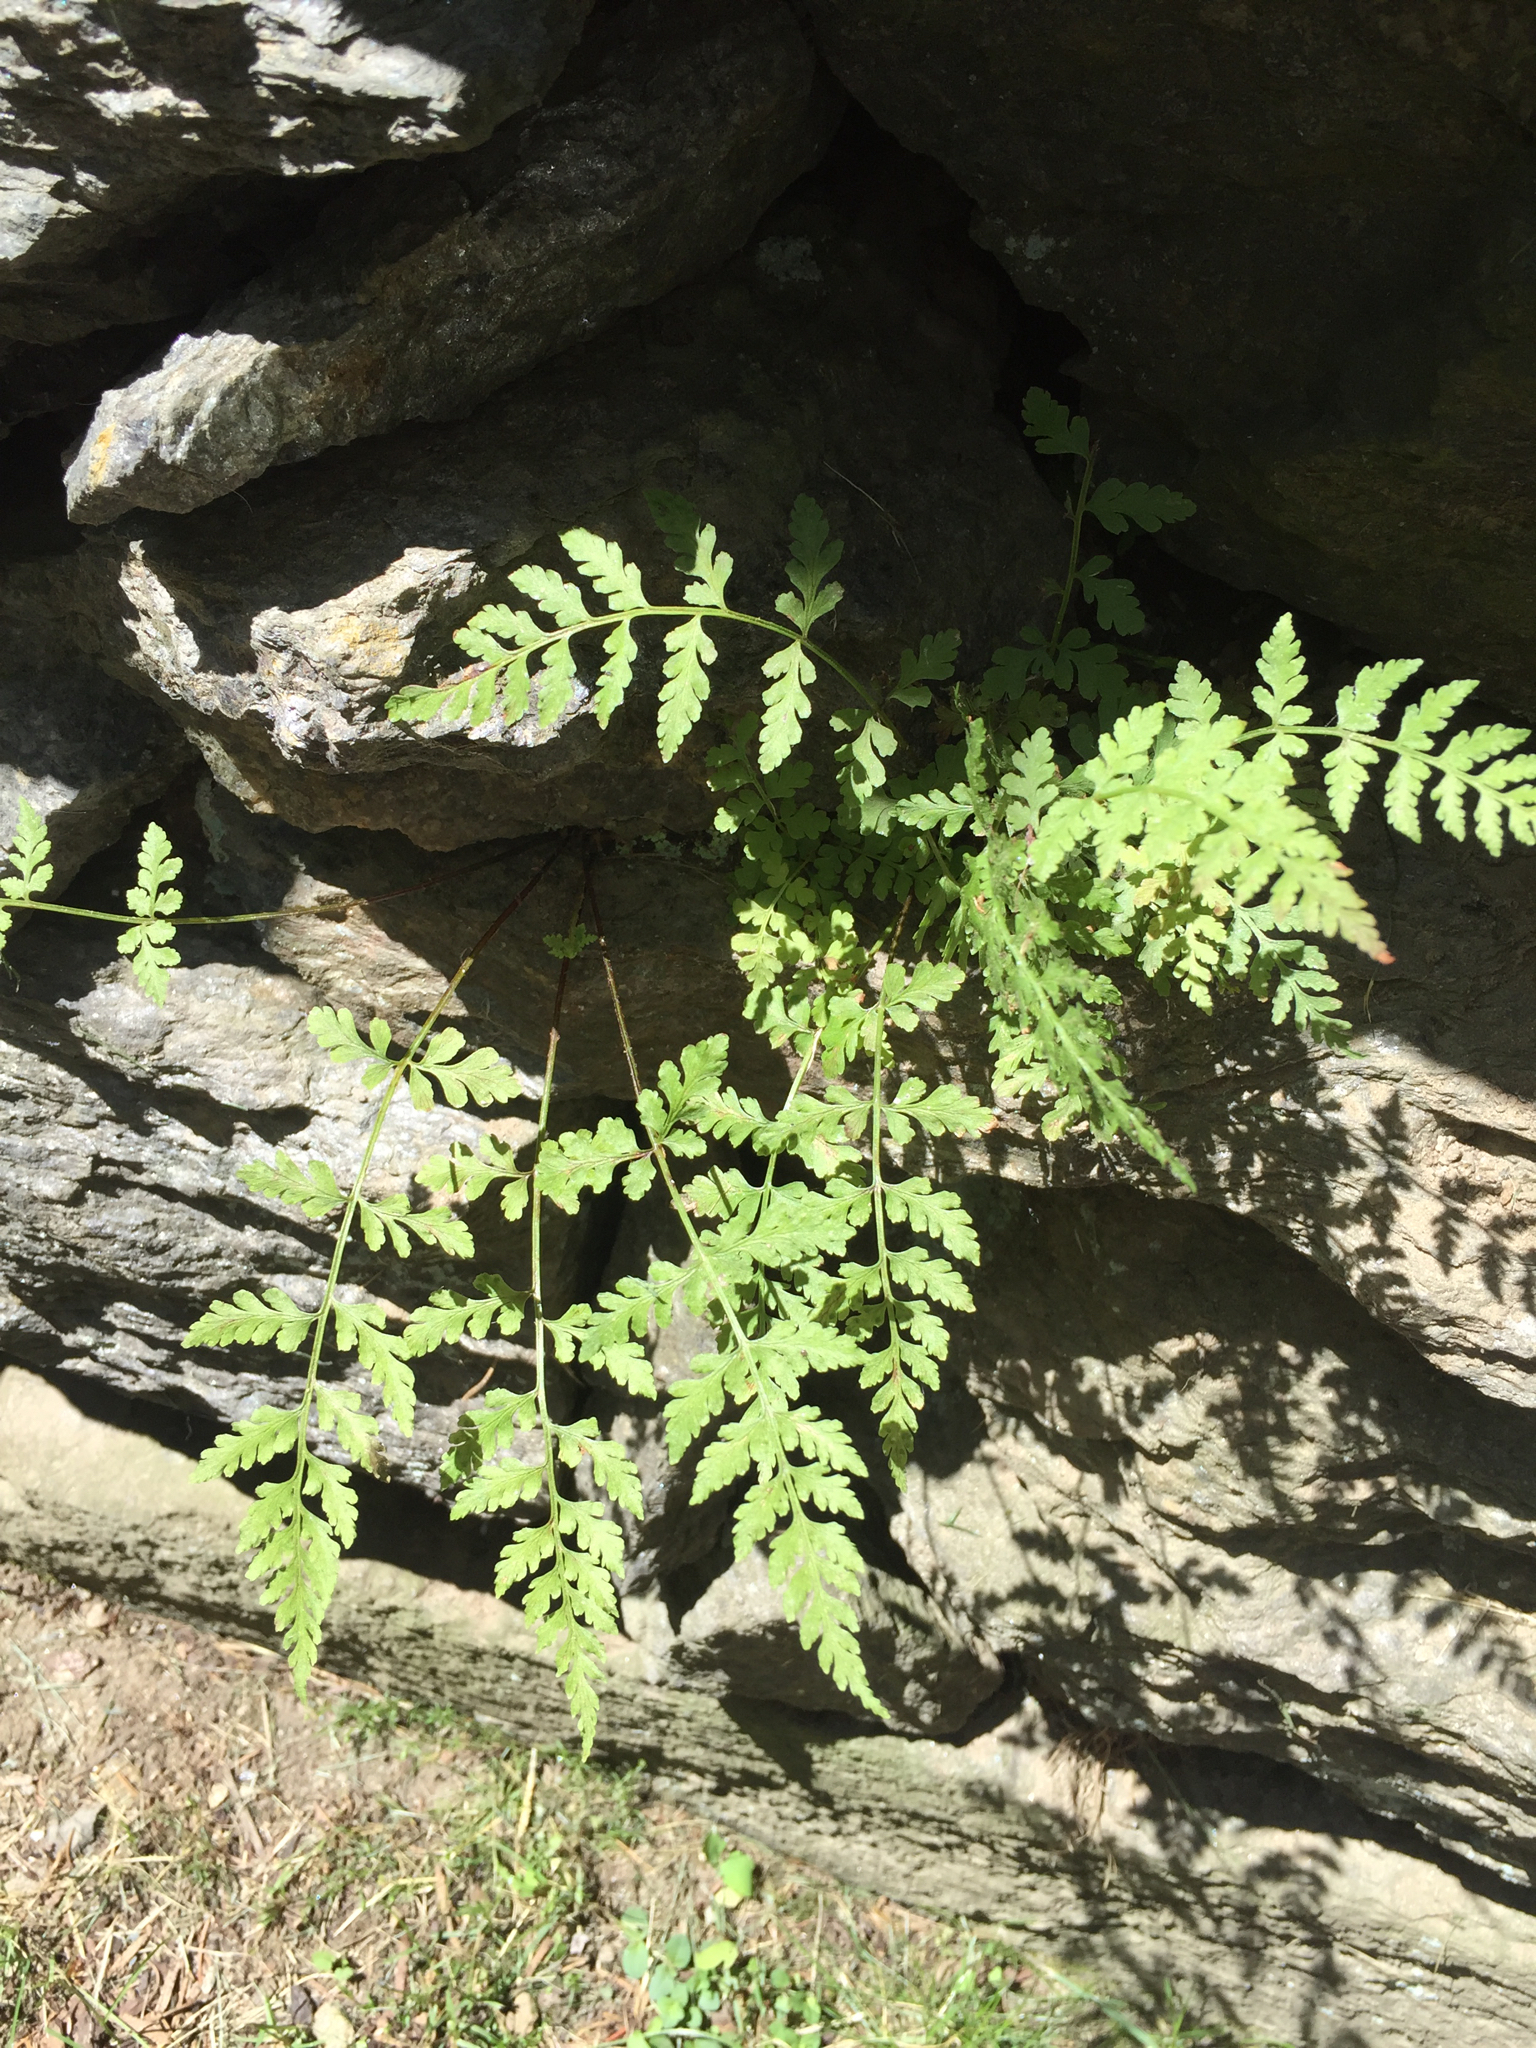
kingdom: Plantae
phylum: Tracheophyta
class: Polypodiopsida
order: Polypodiales
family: Cystopteridaceae
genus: Cystopteris
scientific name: Cystopteris fragilis
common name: Brittle bladder fern
